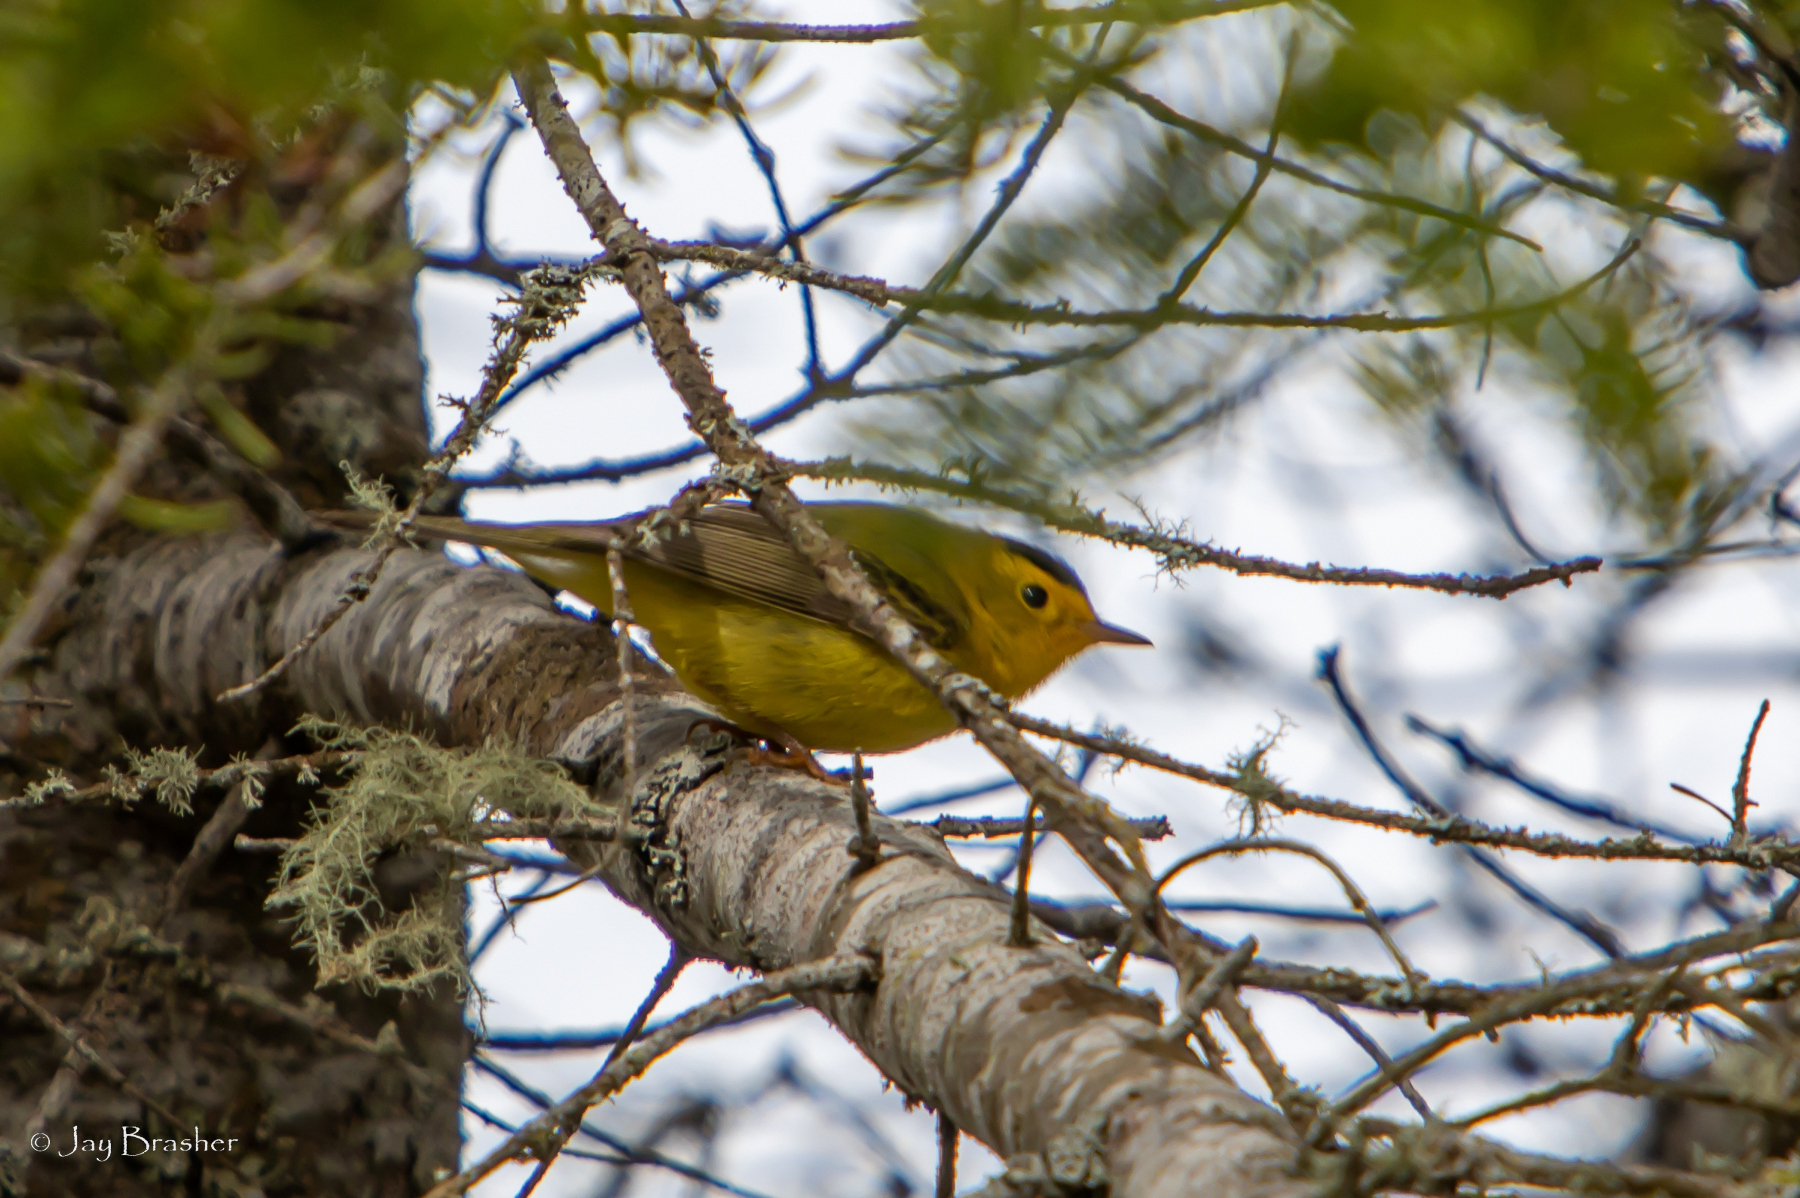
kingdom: Animalia
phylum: Chordata
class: Aves
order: Passeriformes
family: Parulidae
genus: Cardellina
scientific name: Cardellina pusilla
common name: Wilson's warbler
